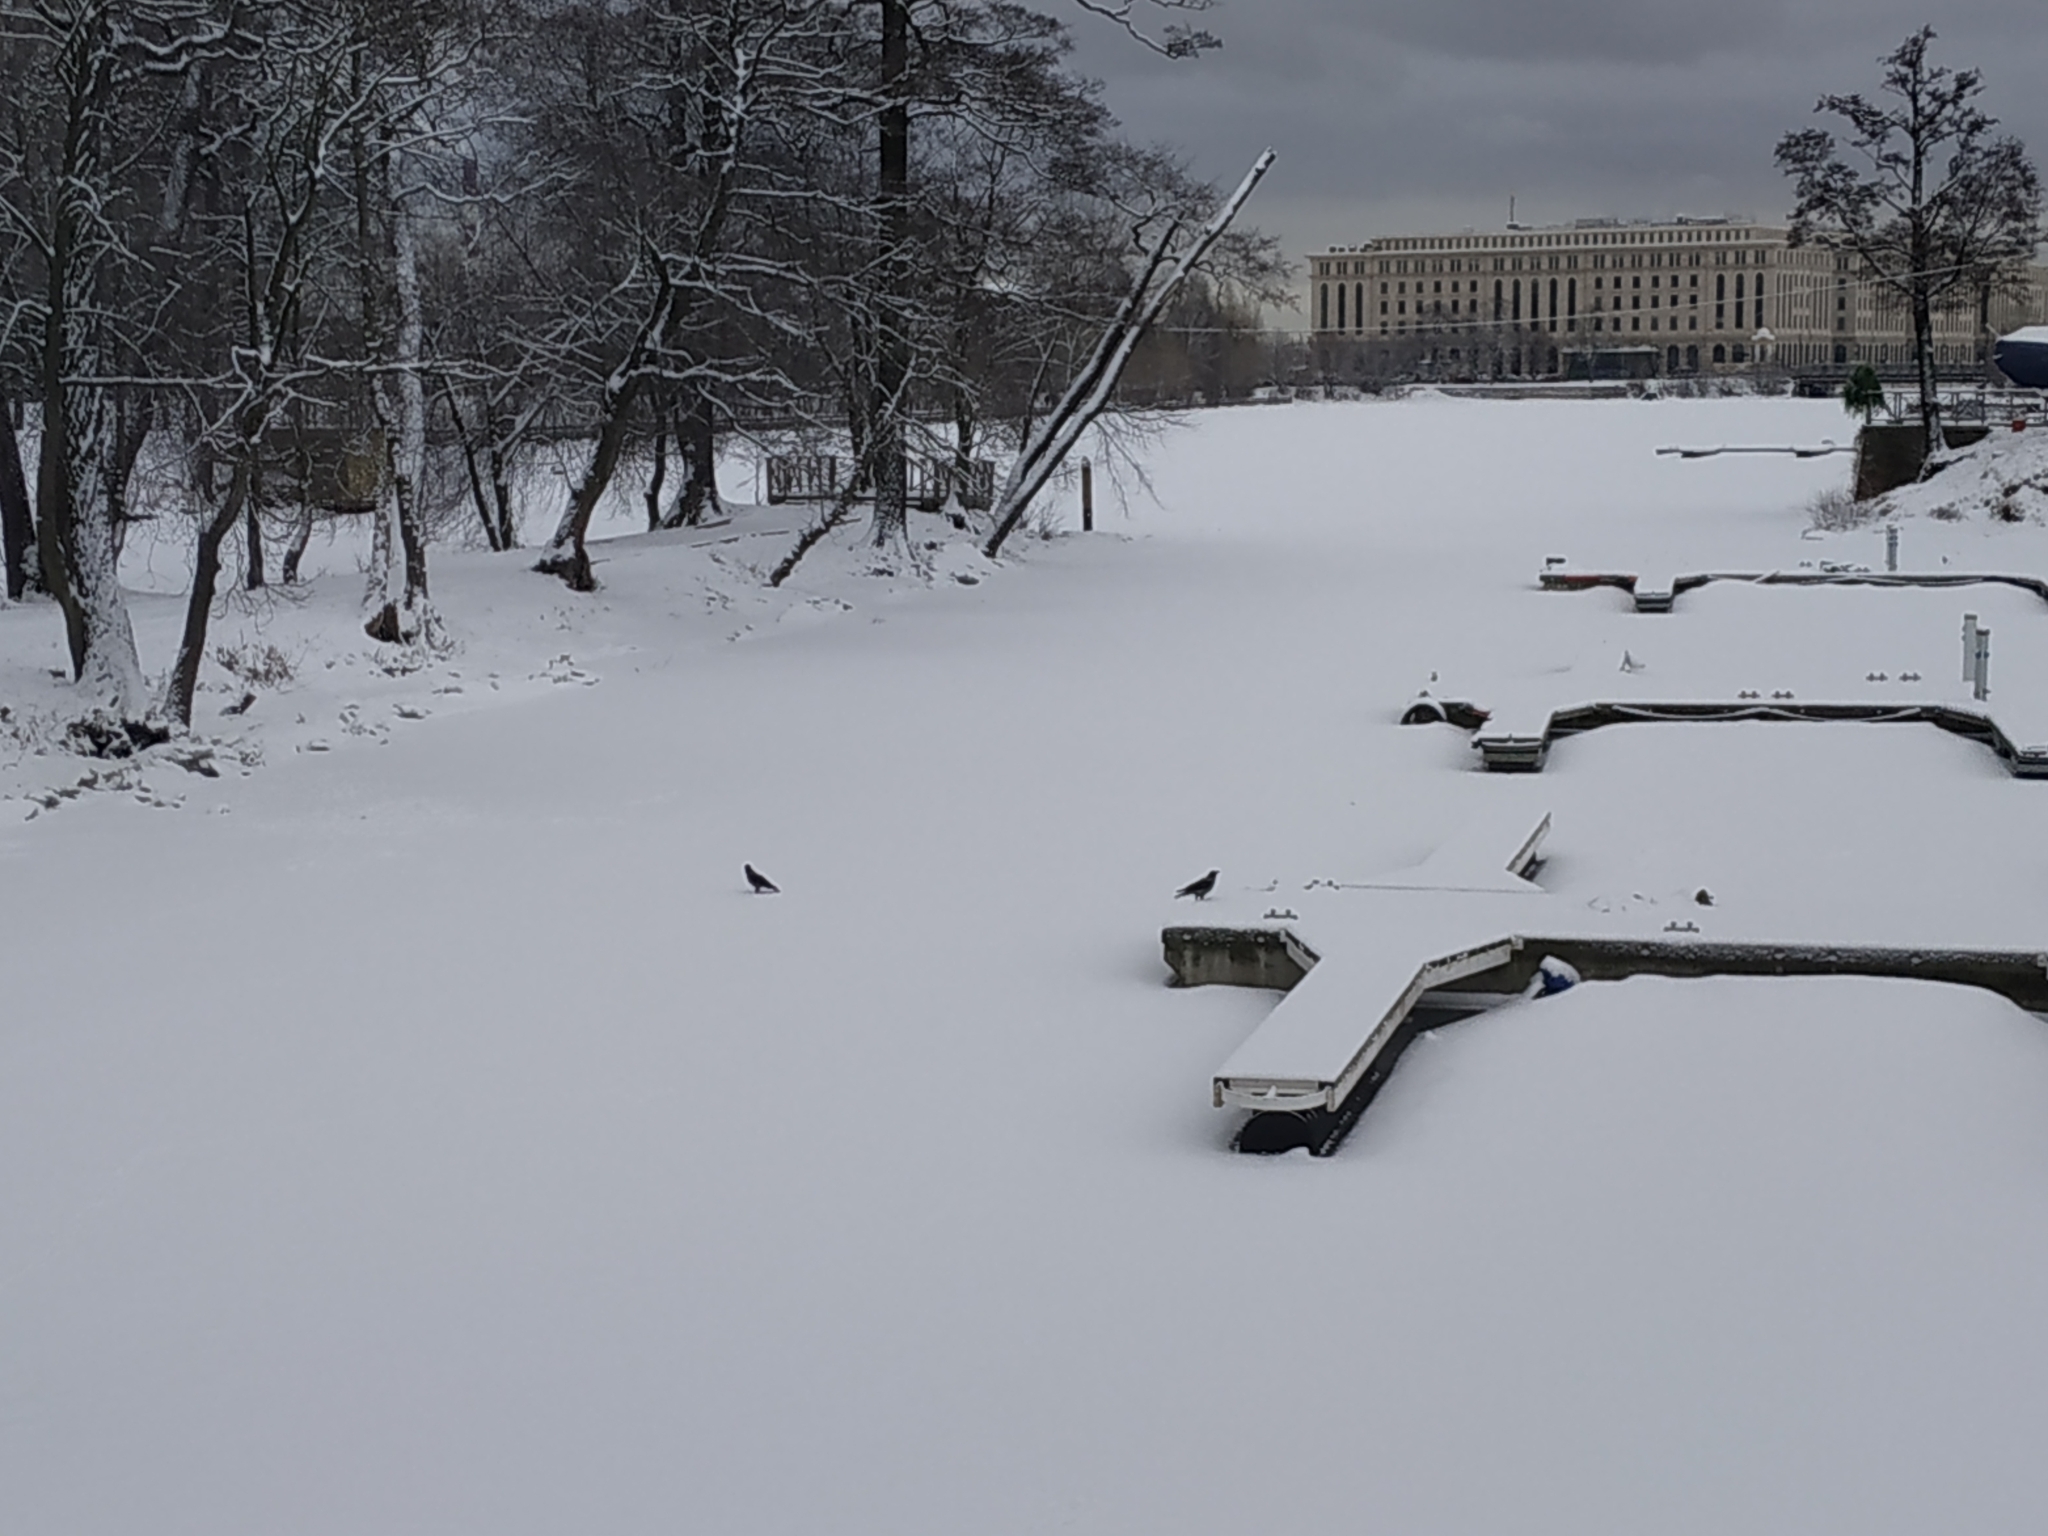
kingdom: Animalia
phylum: Chordata
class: Aves
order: Passeriformes
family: Corvidae
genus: Corvus
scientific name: Corvus cornix
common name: Hooded crow
